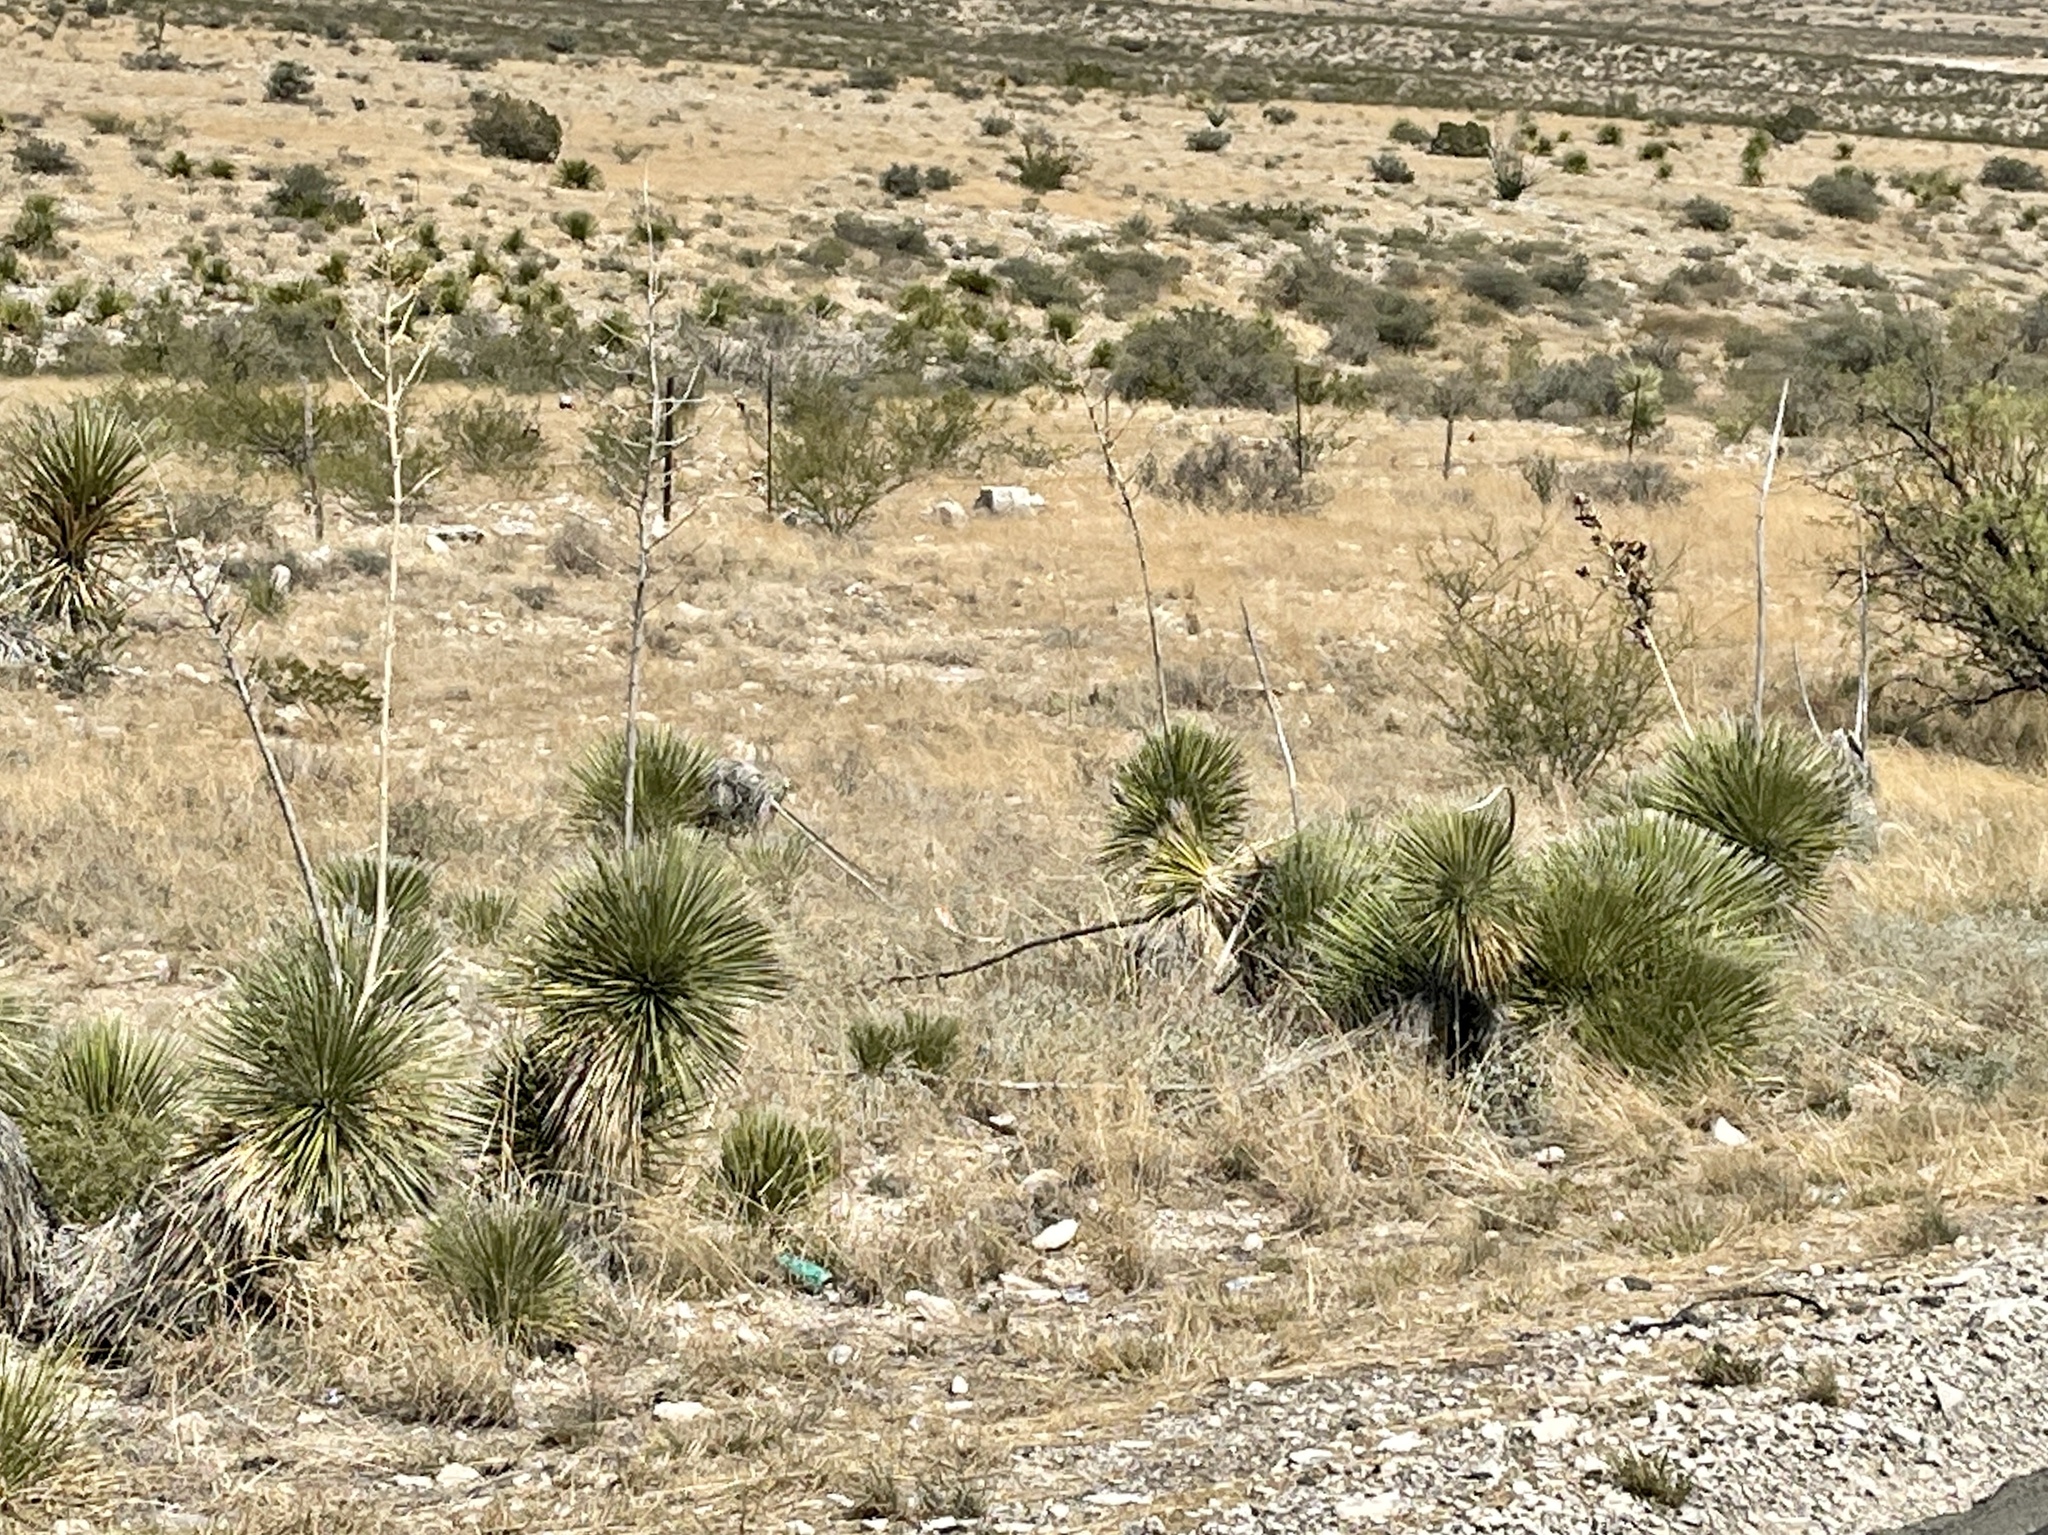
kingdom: Plantae
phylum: Tracheophyta
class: Liliopsida
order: Asparagales
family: Asparagaceae
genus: Yucca
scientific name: Yucca elata
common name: Palmella
